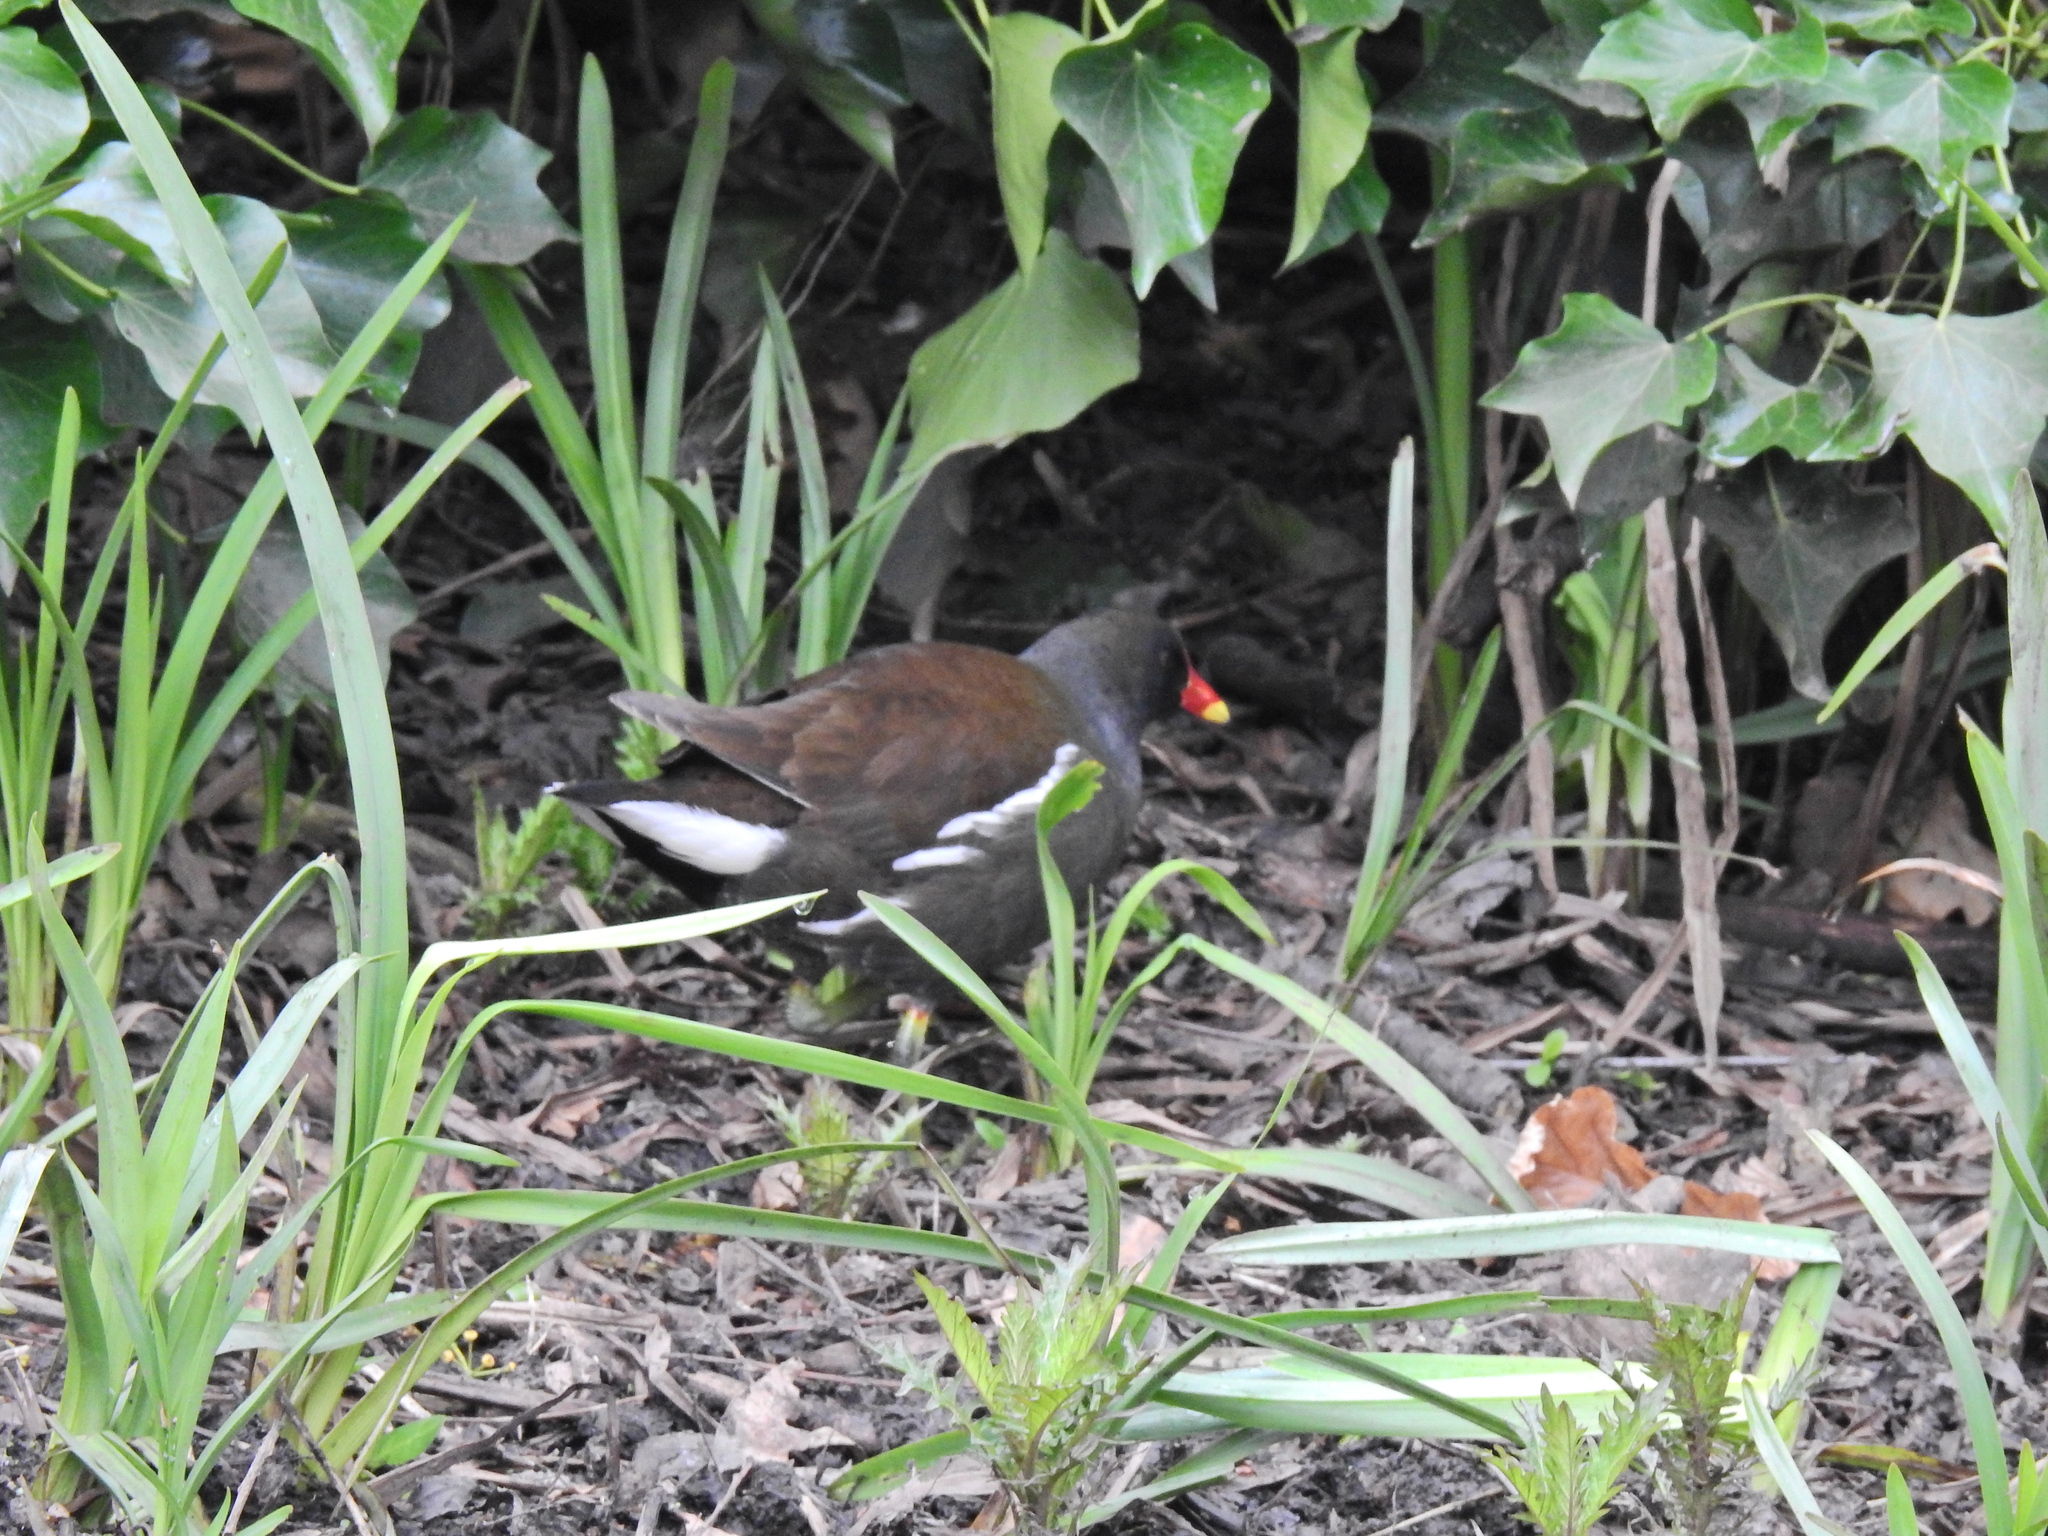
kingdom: Animalia
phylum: Chordata
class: Aves
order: Gruiformes
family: Rallidae
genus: Gallinula
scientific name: Gallinula chloropus
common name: Common moorhen
